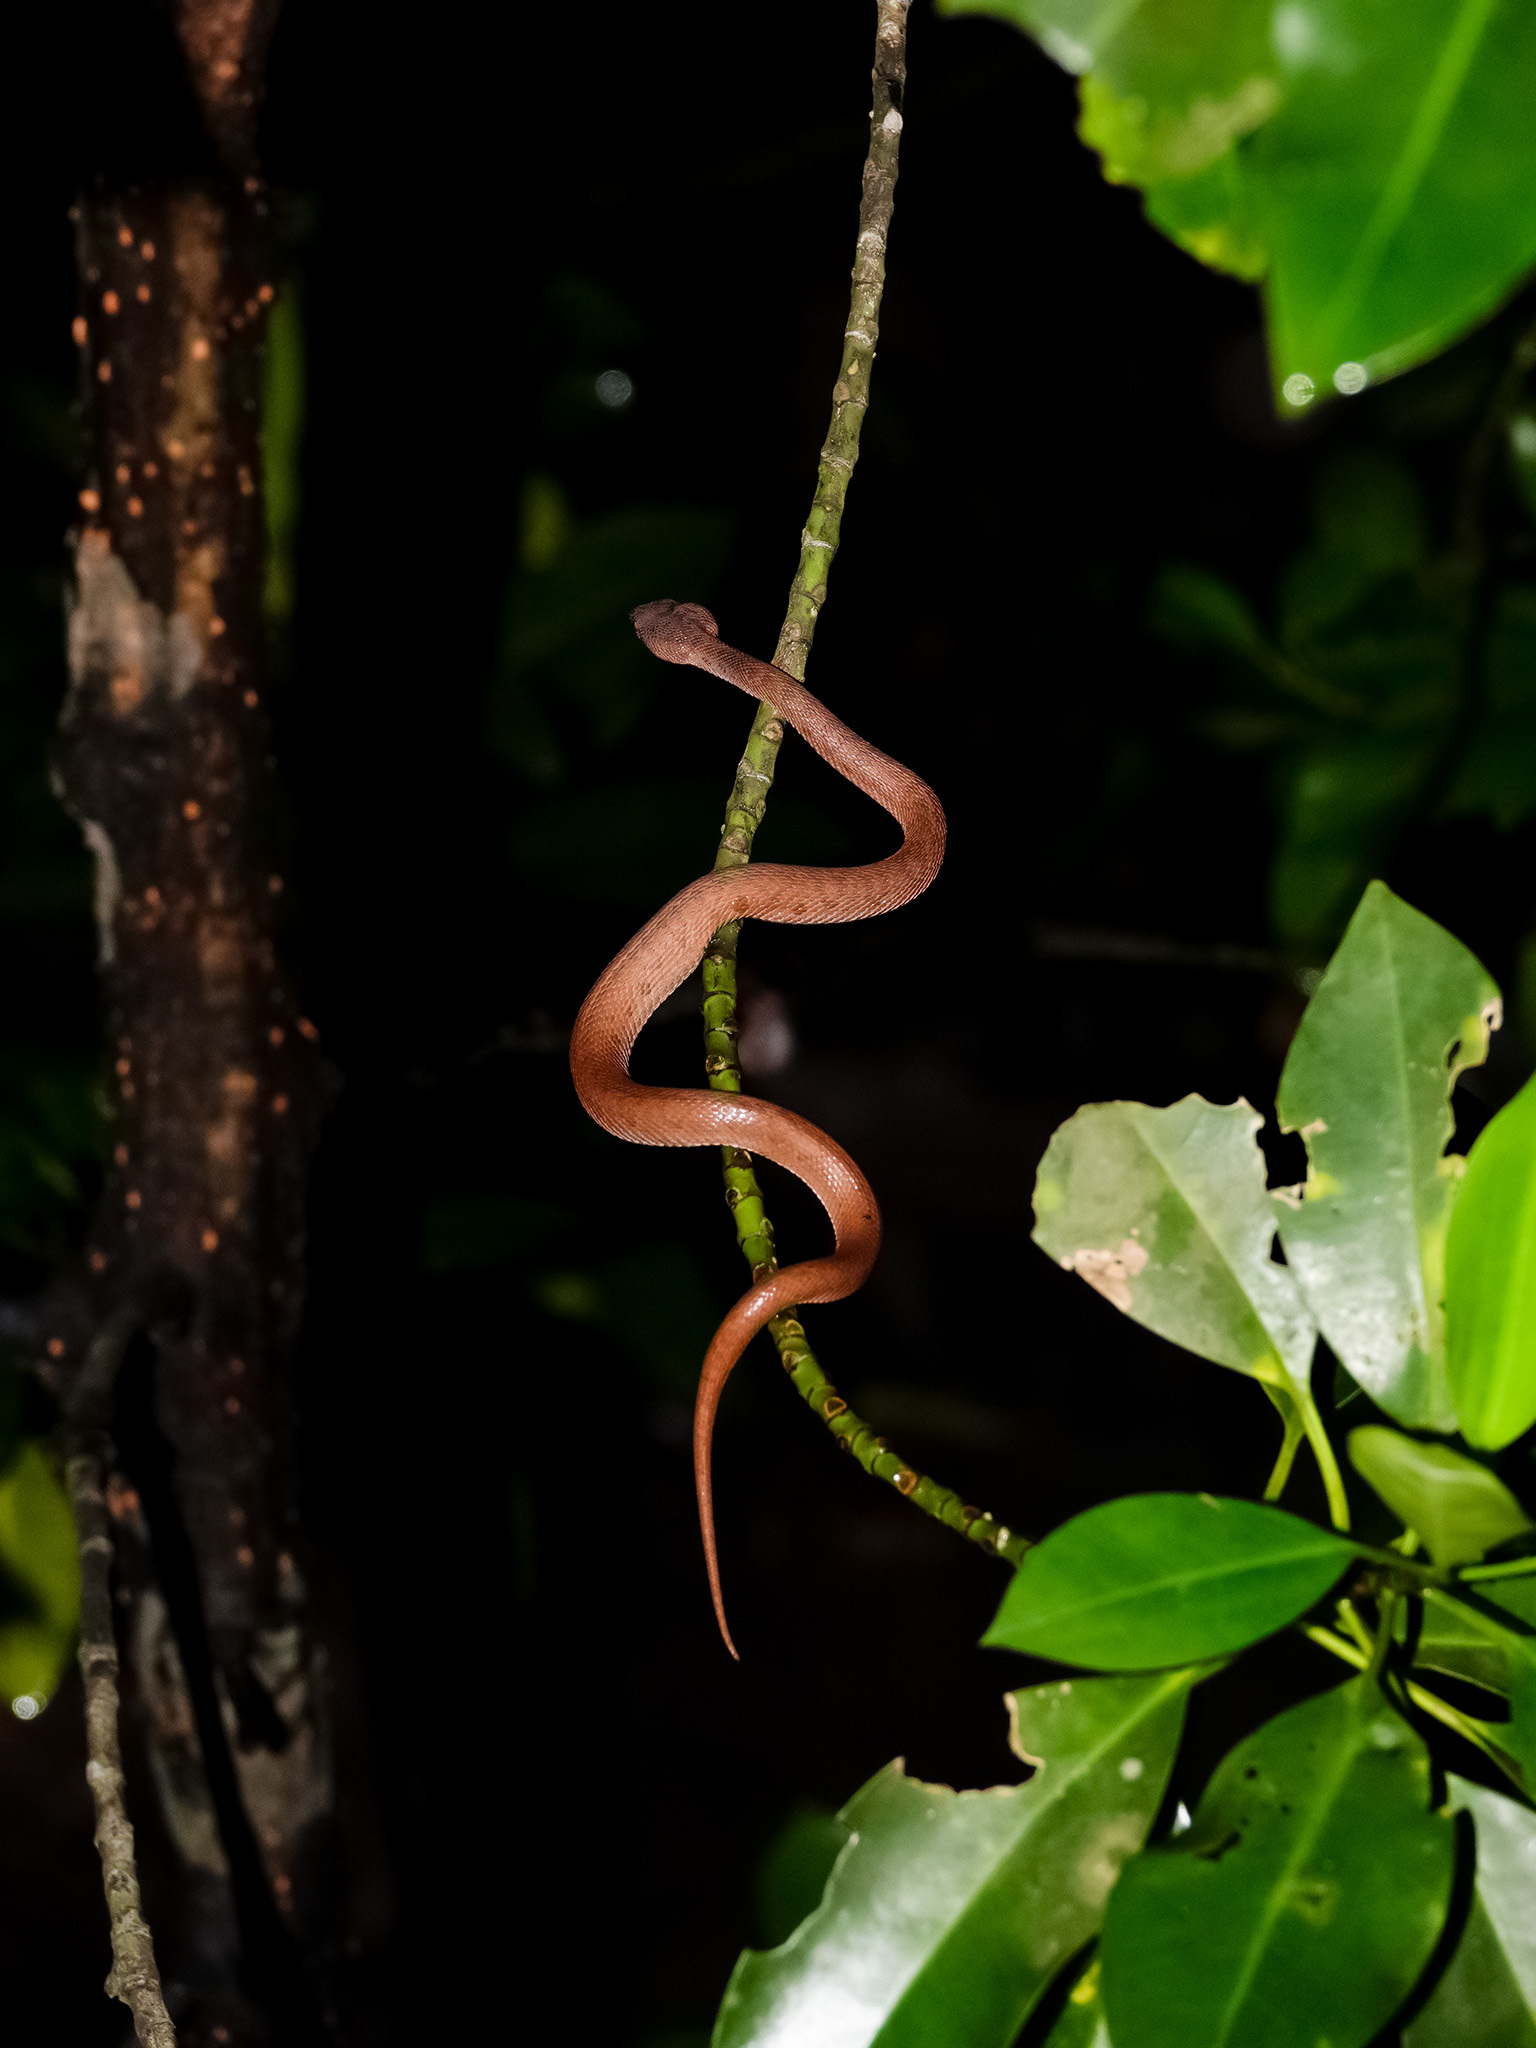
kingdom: Animalia
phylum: Chordata
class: Squamata
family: Viperidae
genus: Trimeresurus
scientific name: Trimeresurus purpureomaculatus
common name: Shore pit viper
